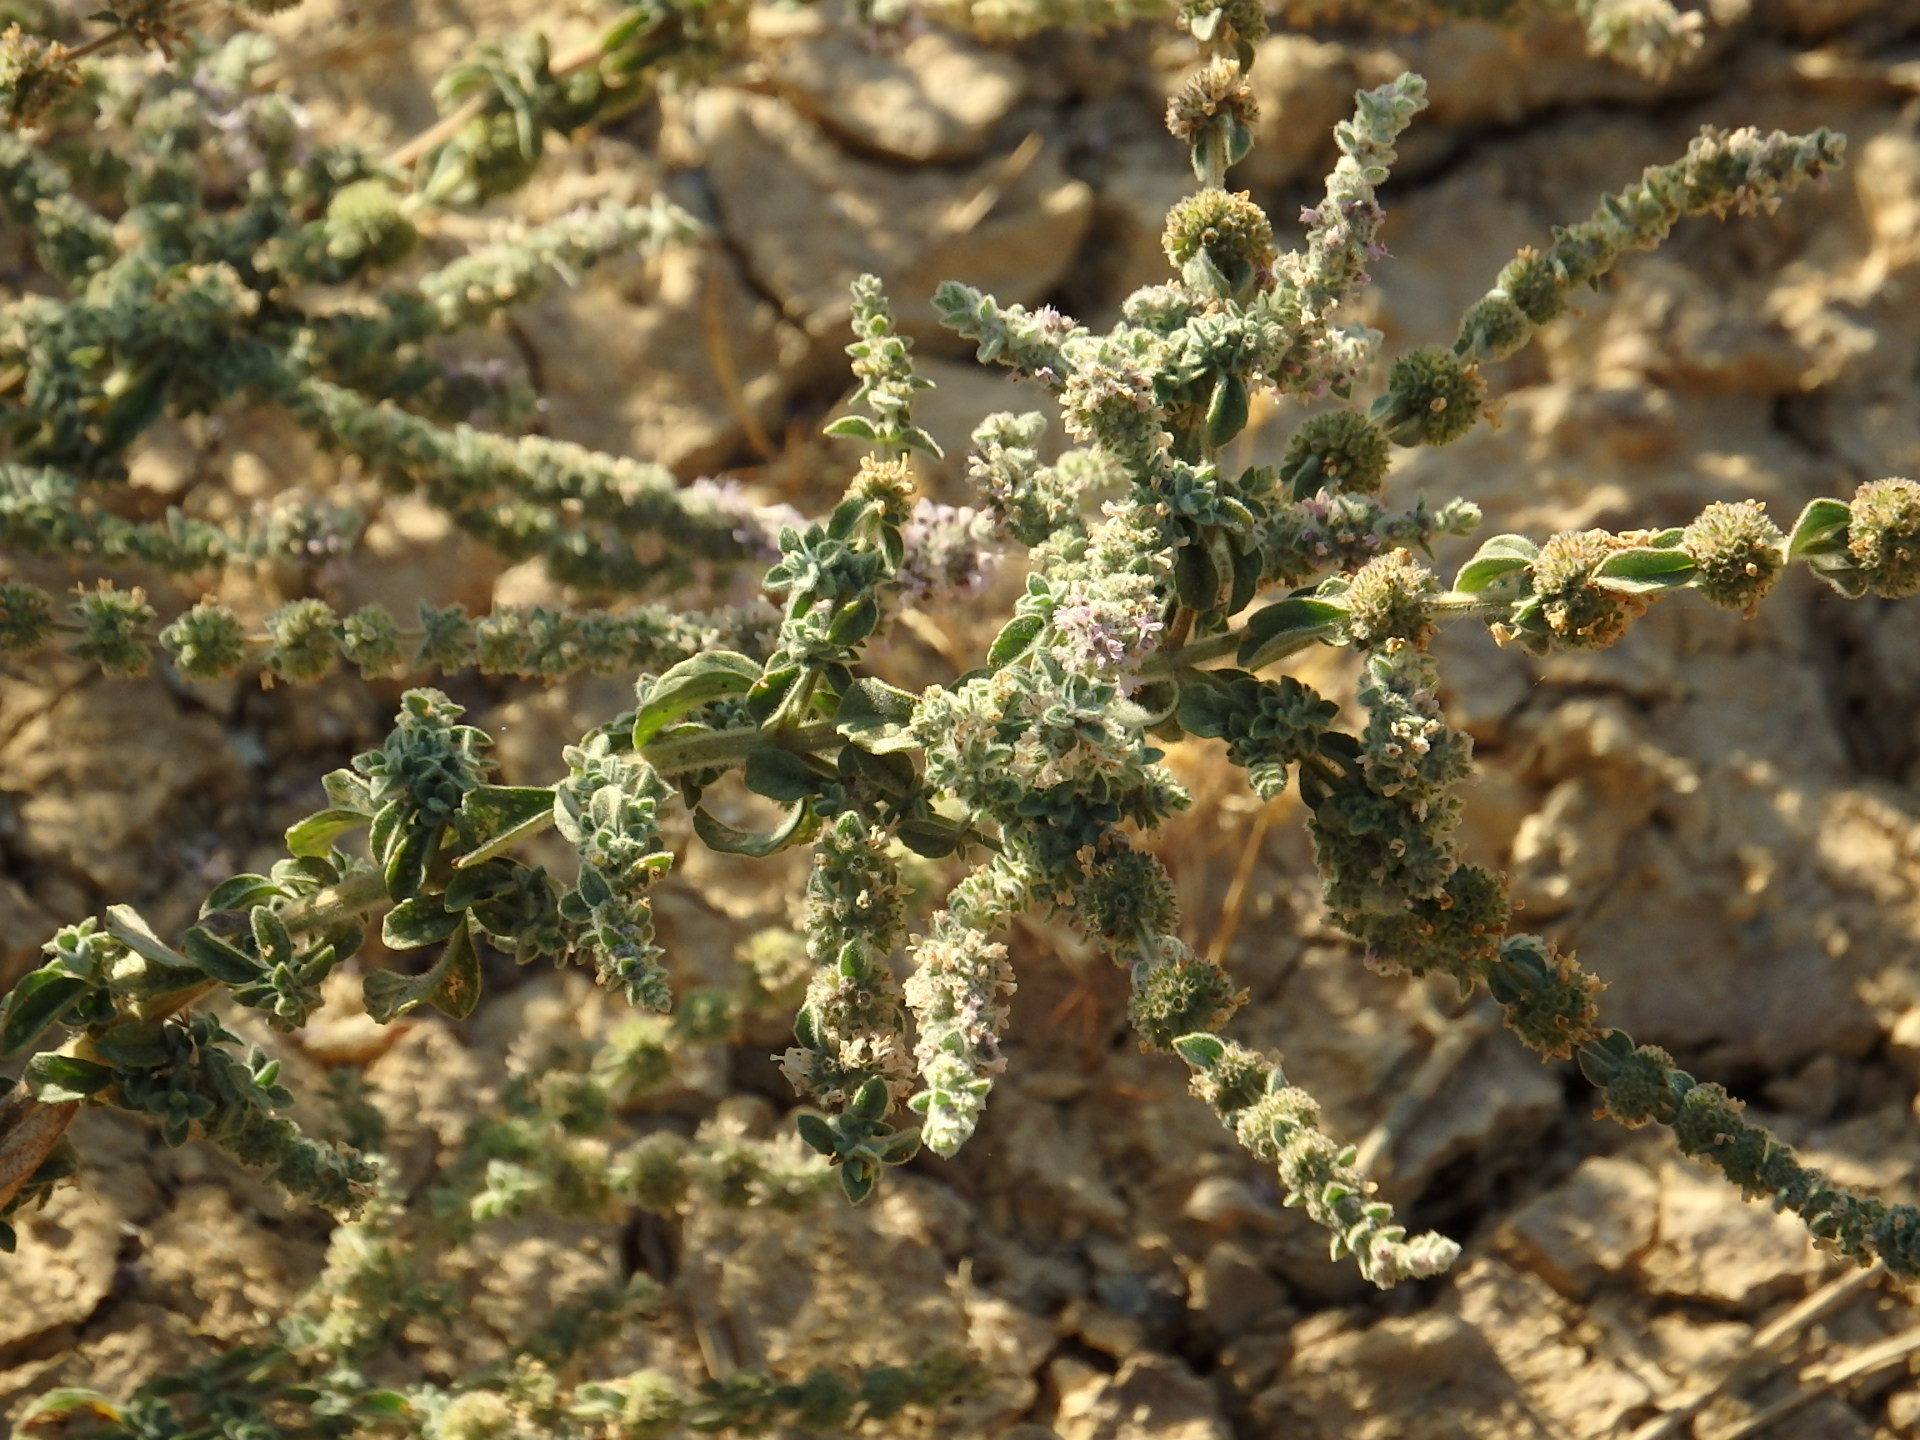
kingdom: Plantae
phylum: Tracheophyta
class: Magnoliopsida
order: Lamiales
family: Lamiaceae
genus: Mentha
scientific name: Mentha pulegium
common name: Pennyroyal
